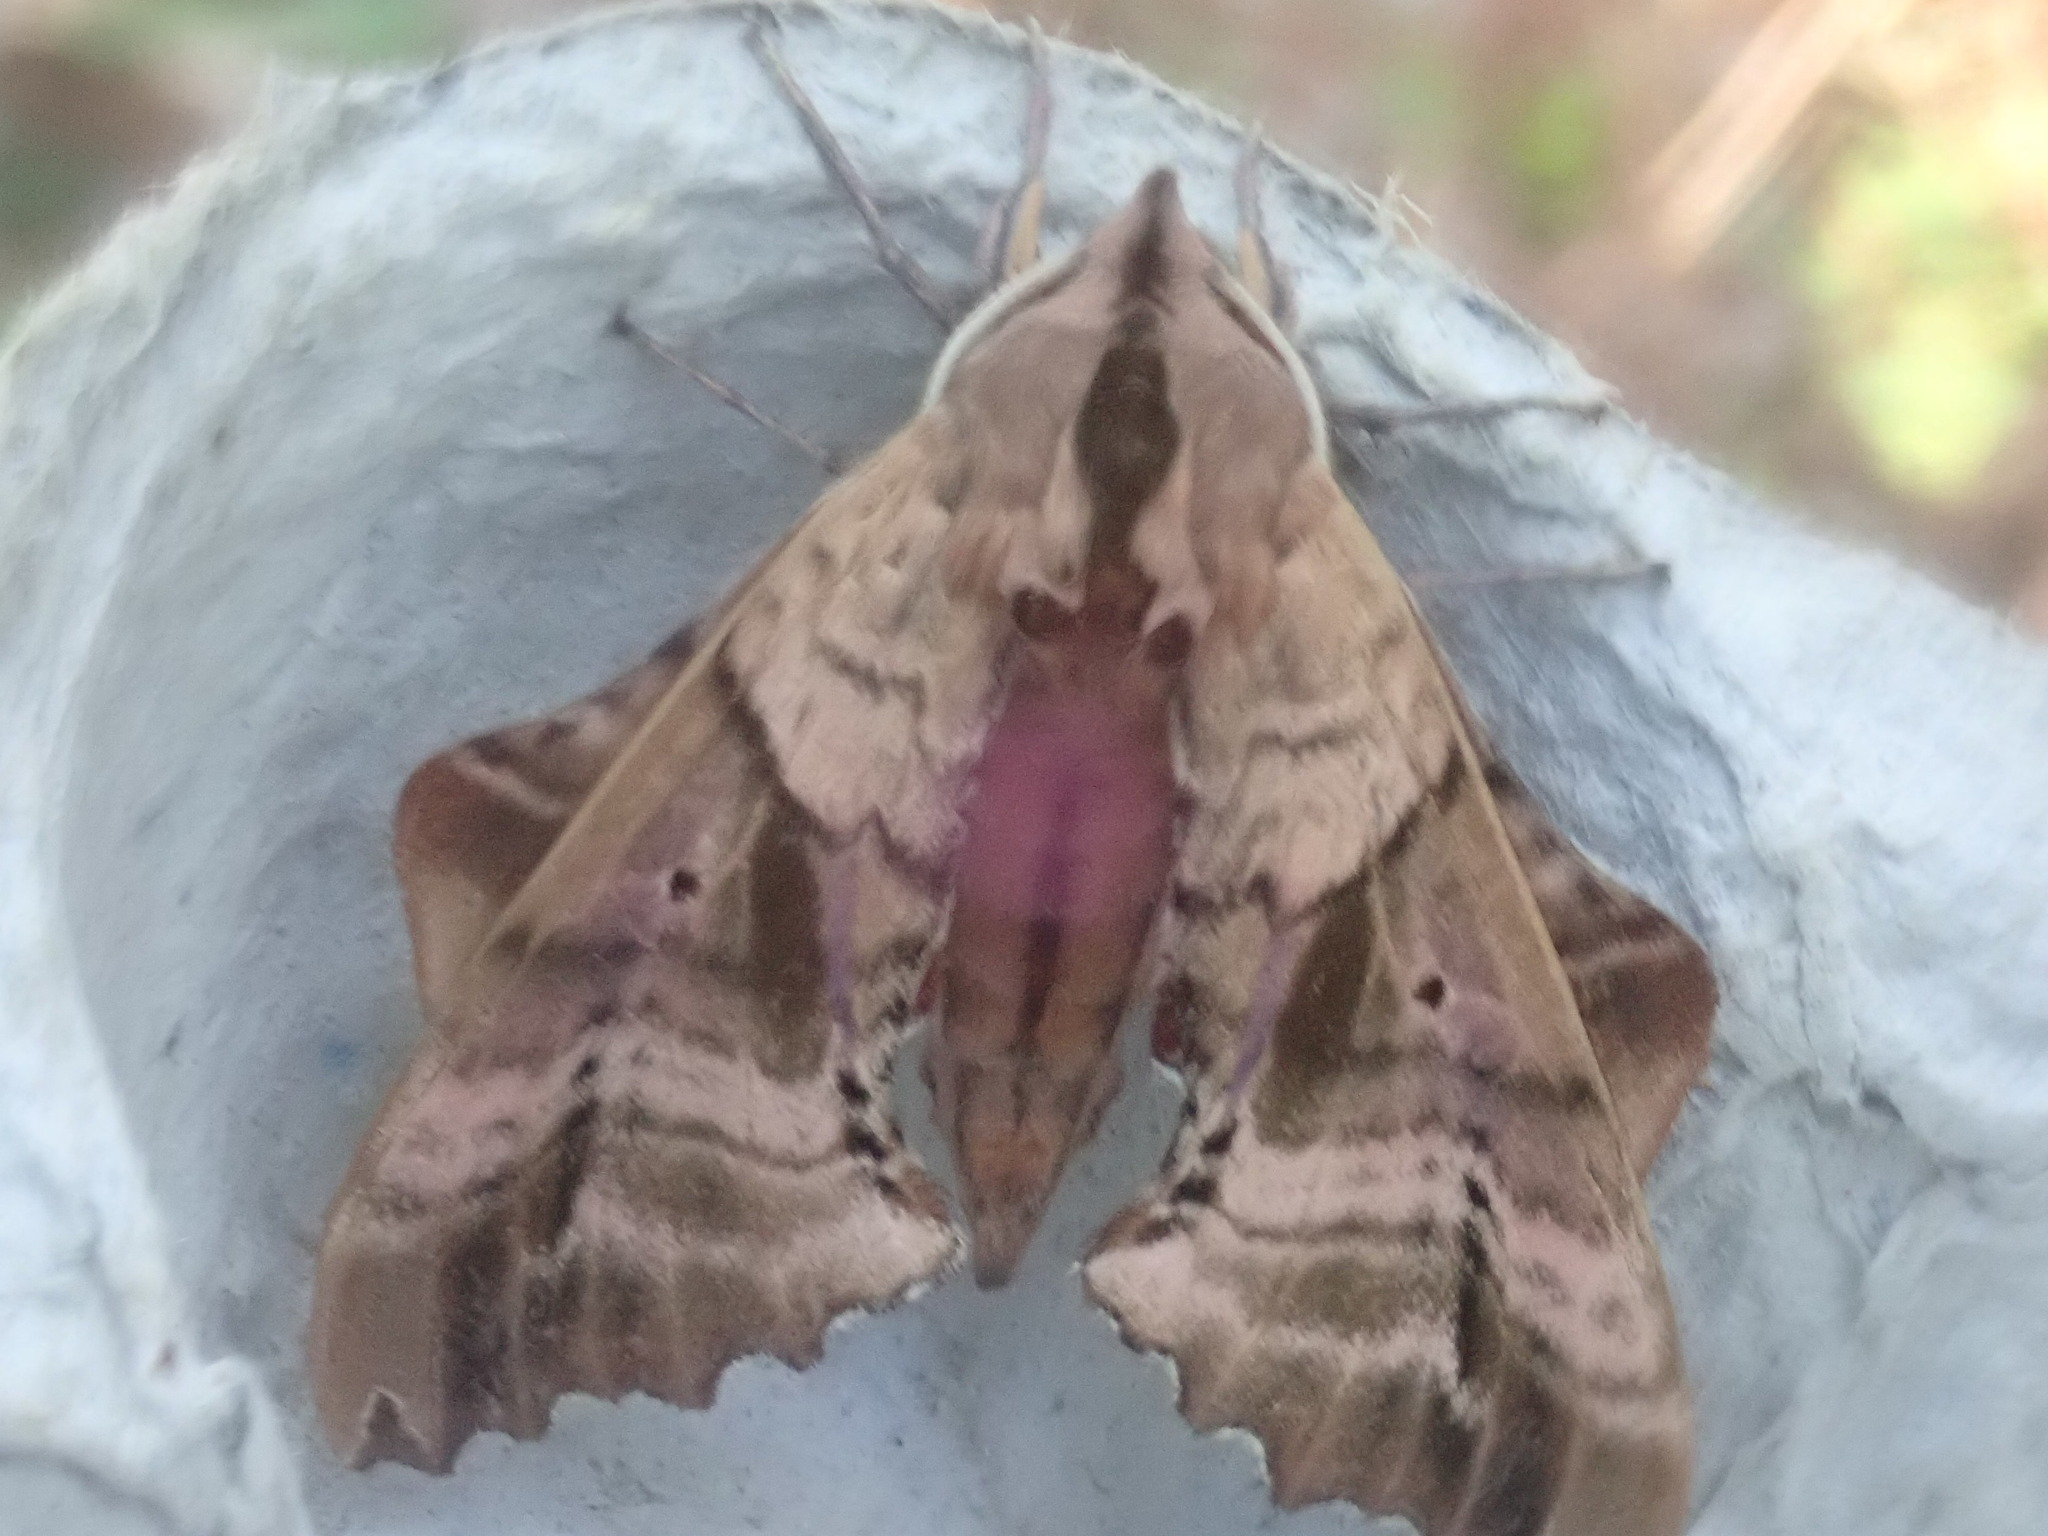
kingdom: Animalia
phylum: Arthropoda
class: Insecta
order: Lepidoptera
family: Sphingidae
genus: Paonias
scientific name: Paonias excaecata
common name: Blind-eyed sphinx
